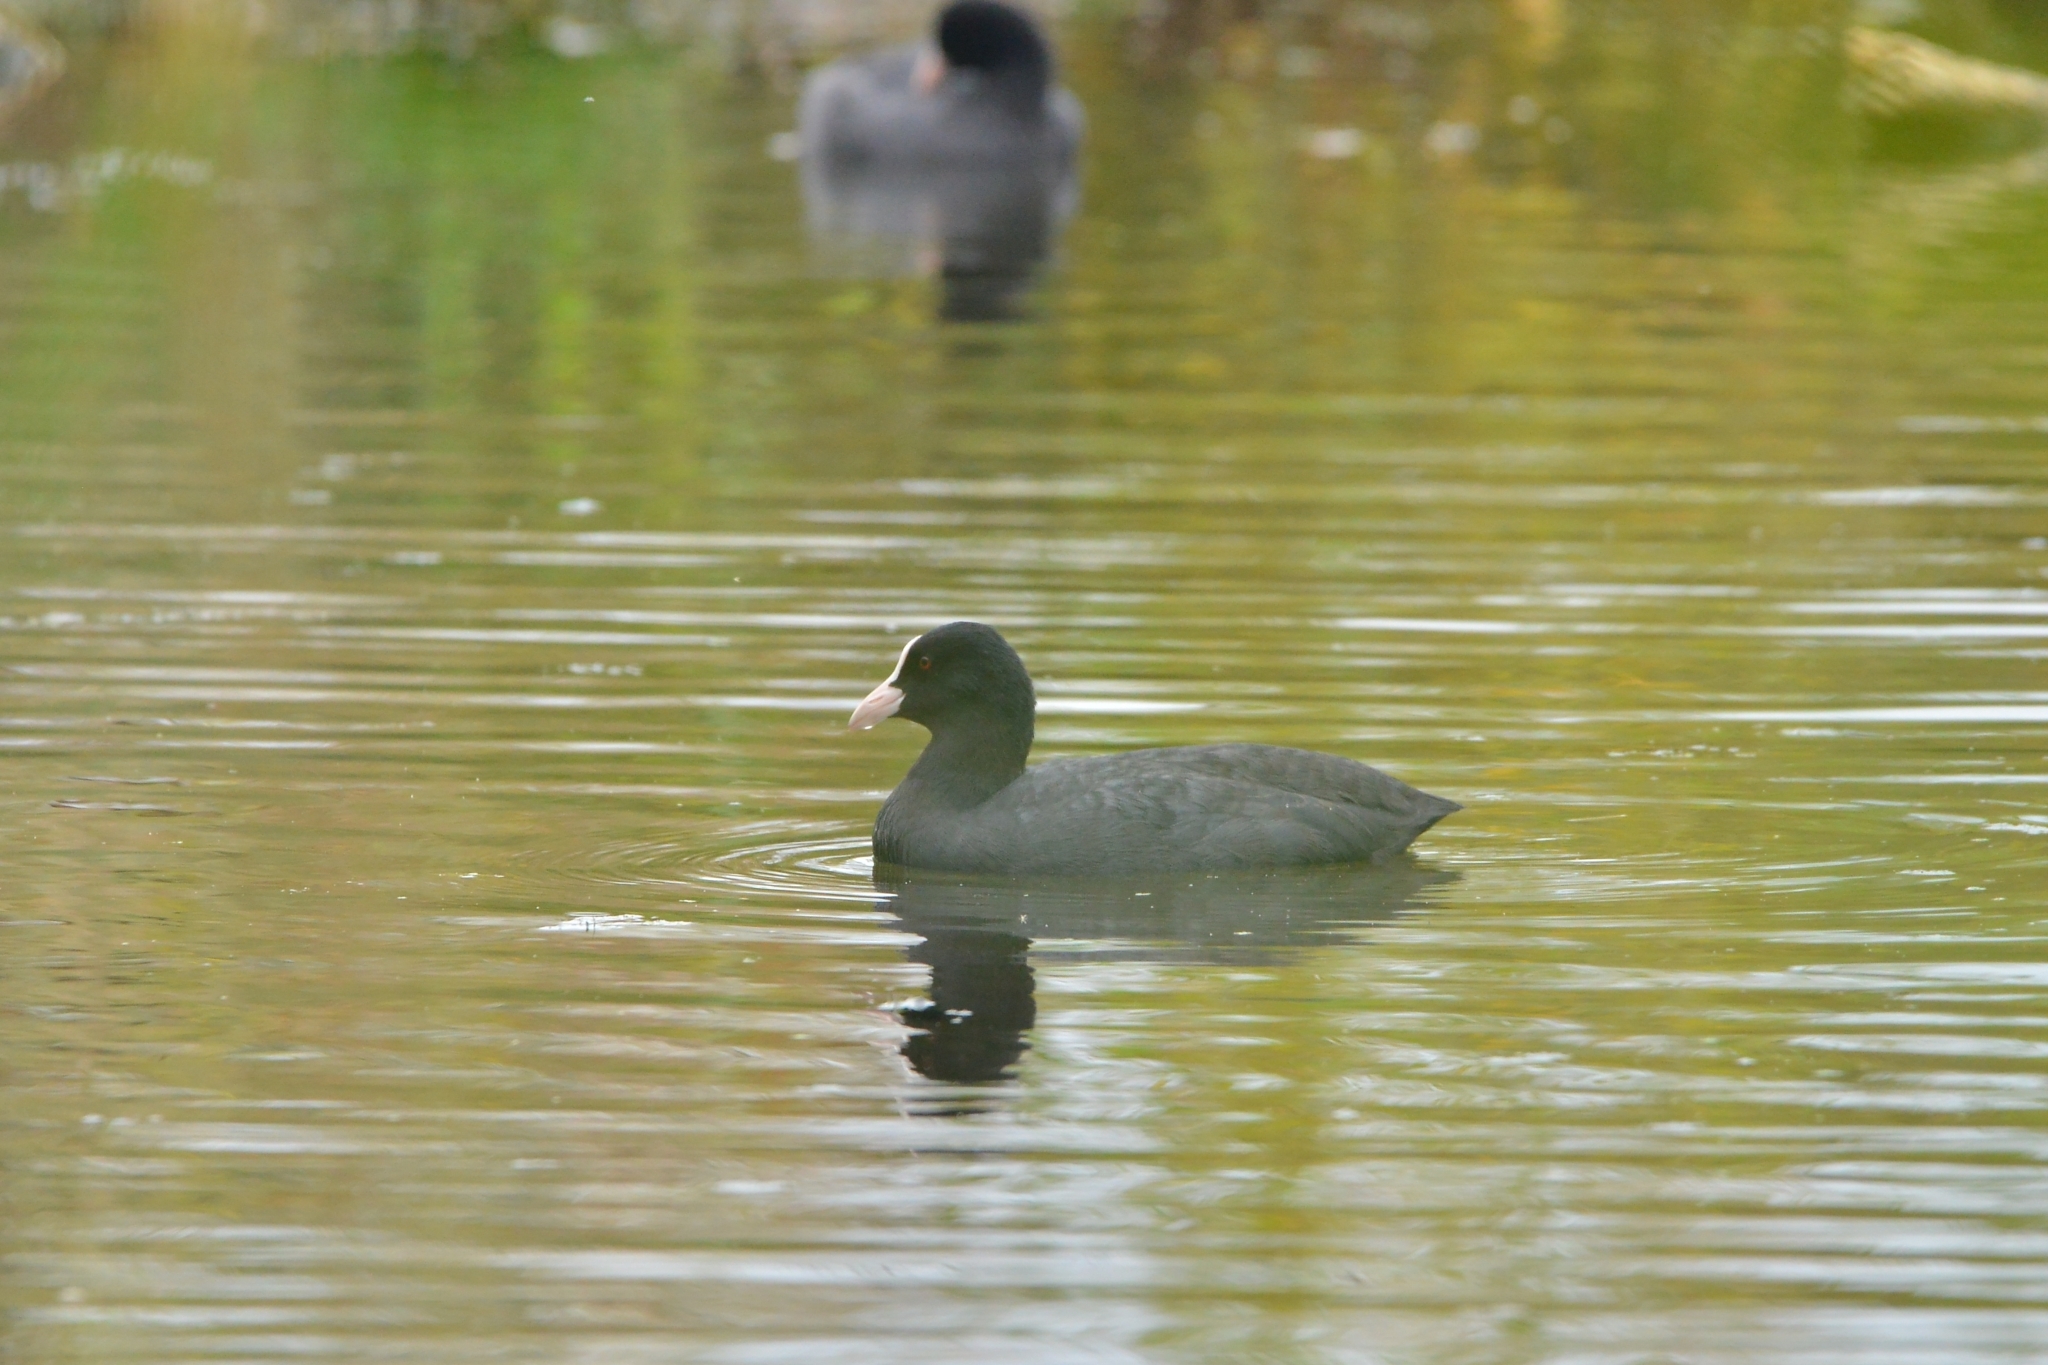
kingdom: Animalia
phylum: Chordata
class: Aves
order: Gruiformes
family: Rallidae
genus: Fulica
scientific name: Fulica atra
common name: Eurasian coot
